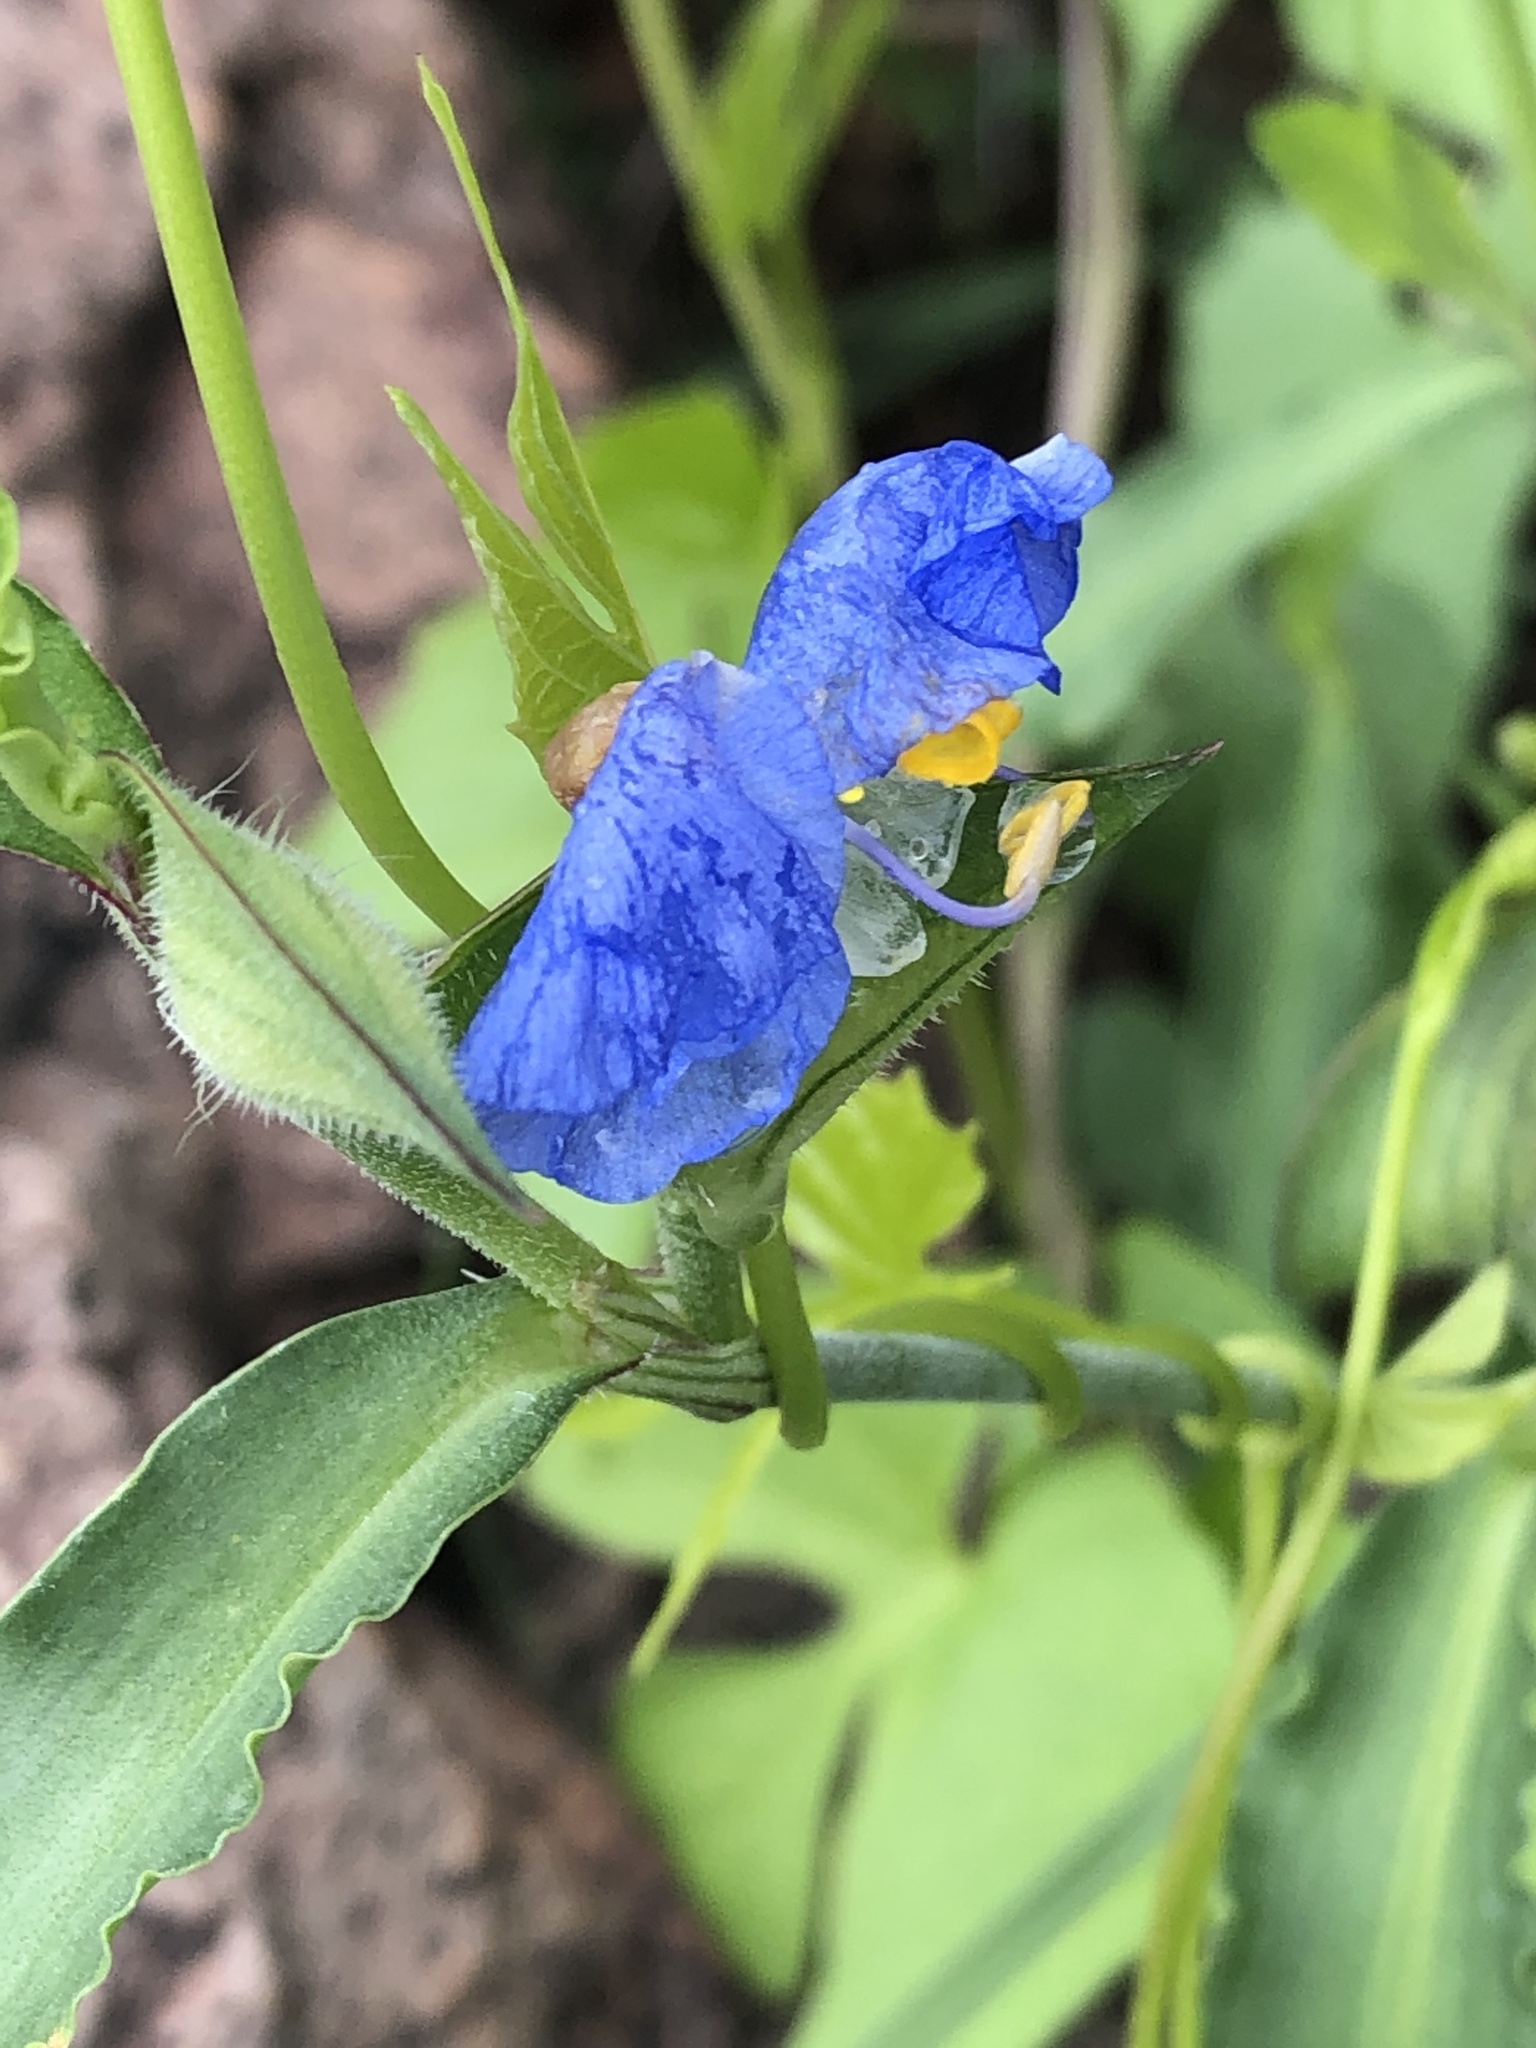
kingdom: Plantae
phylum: Tracheophyta
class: Liliopsida
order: Commelinales
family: Commelinaceae
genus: Commelina
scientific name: Commelina erecta
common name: Blousel blommetjie
